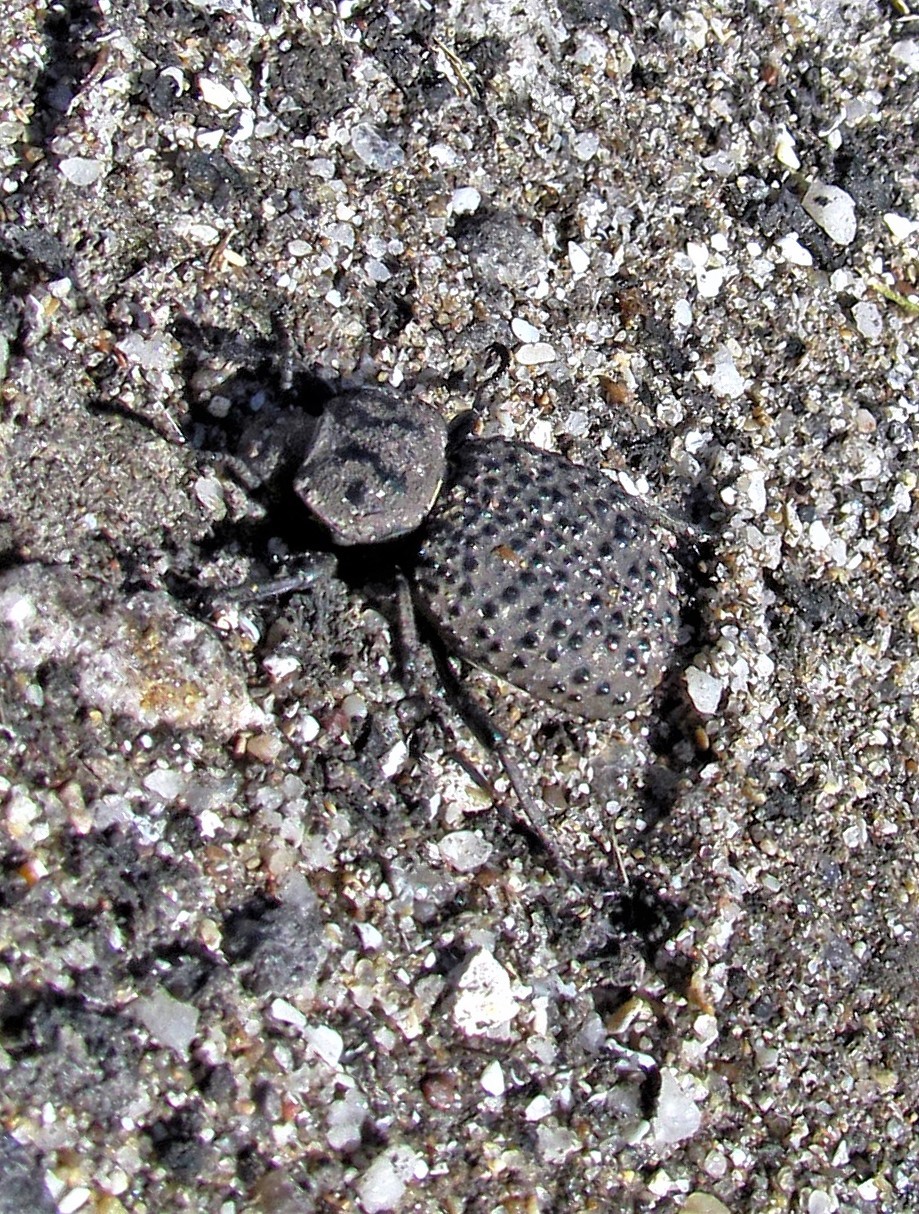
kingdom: Animalia
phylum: Arthropoda
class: Insecta
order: Coleoptera
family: Tenebrionidae
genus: Scotobius
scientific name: Scotobius pilularius
